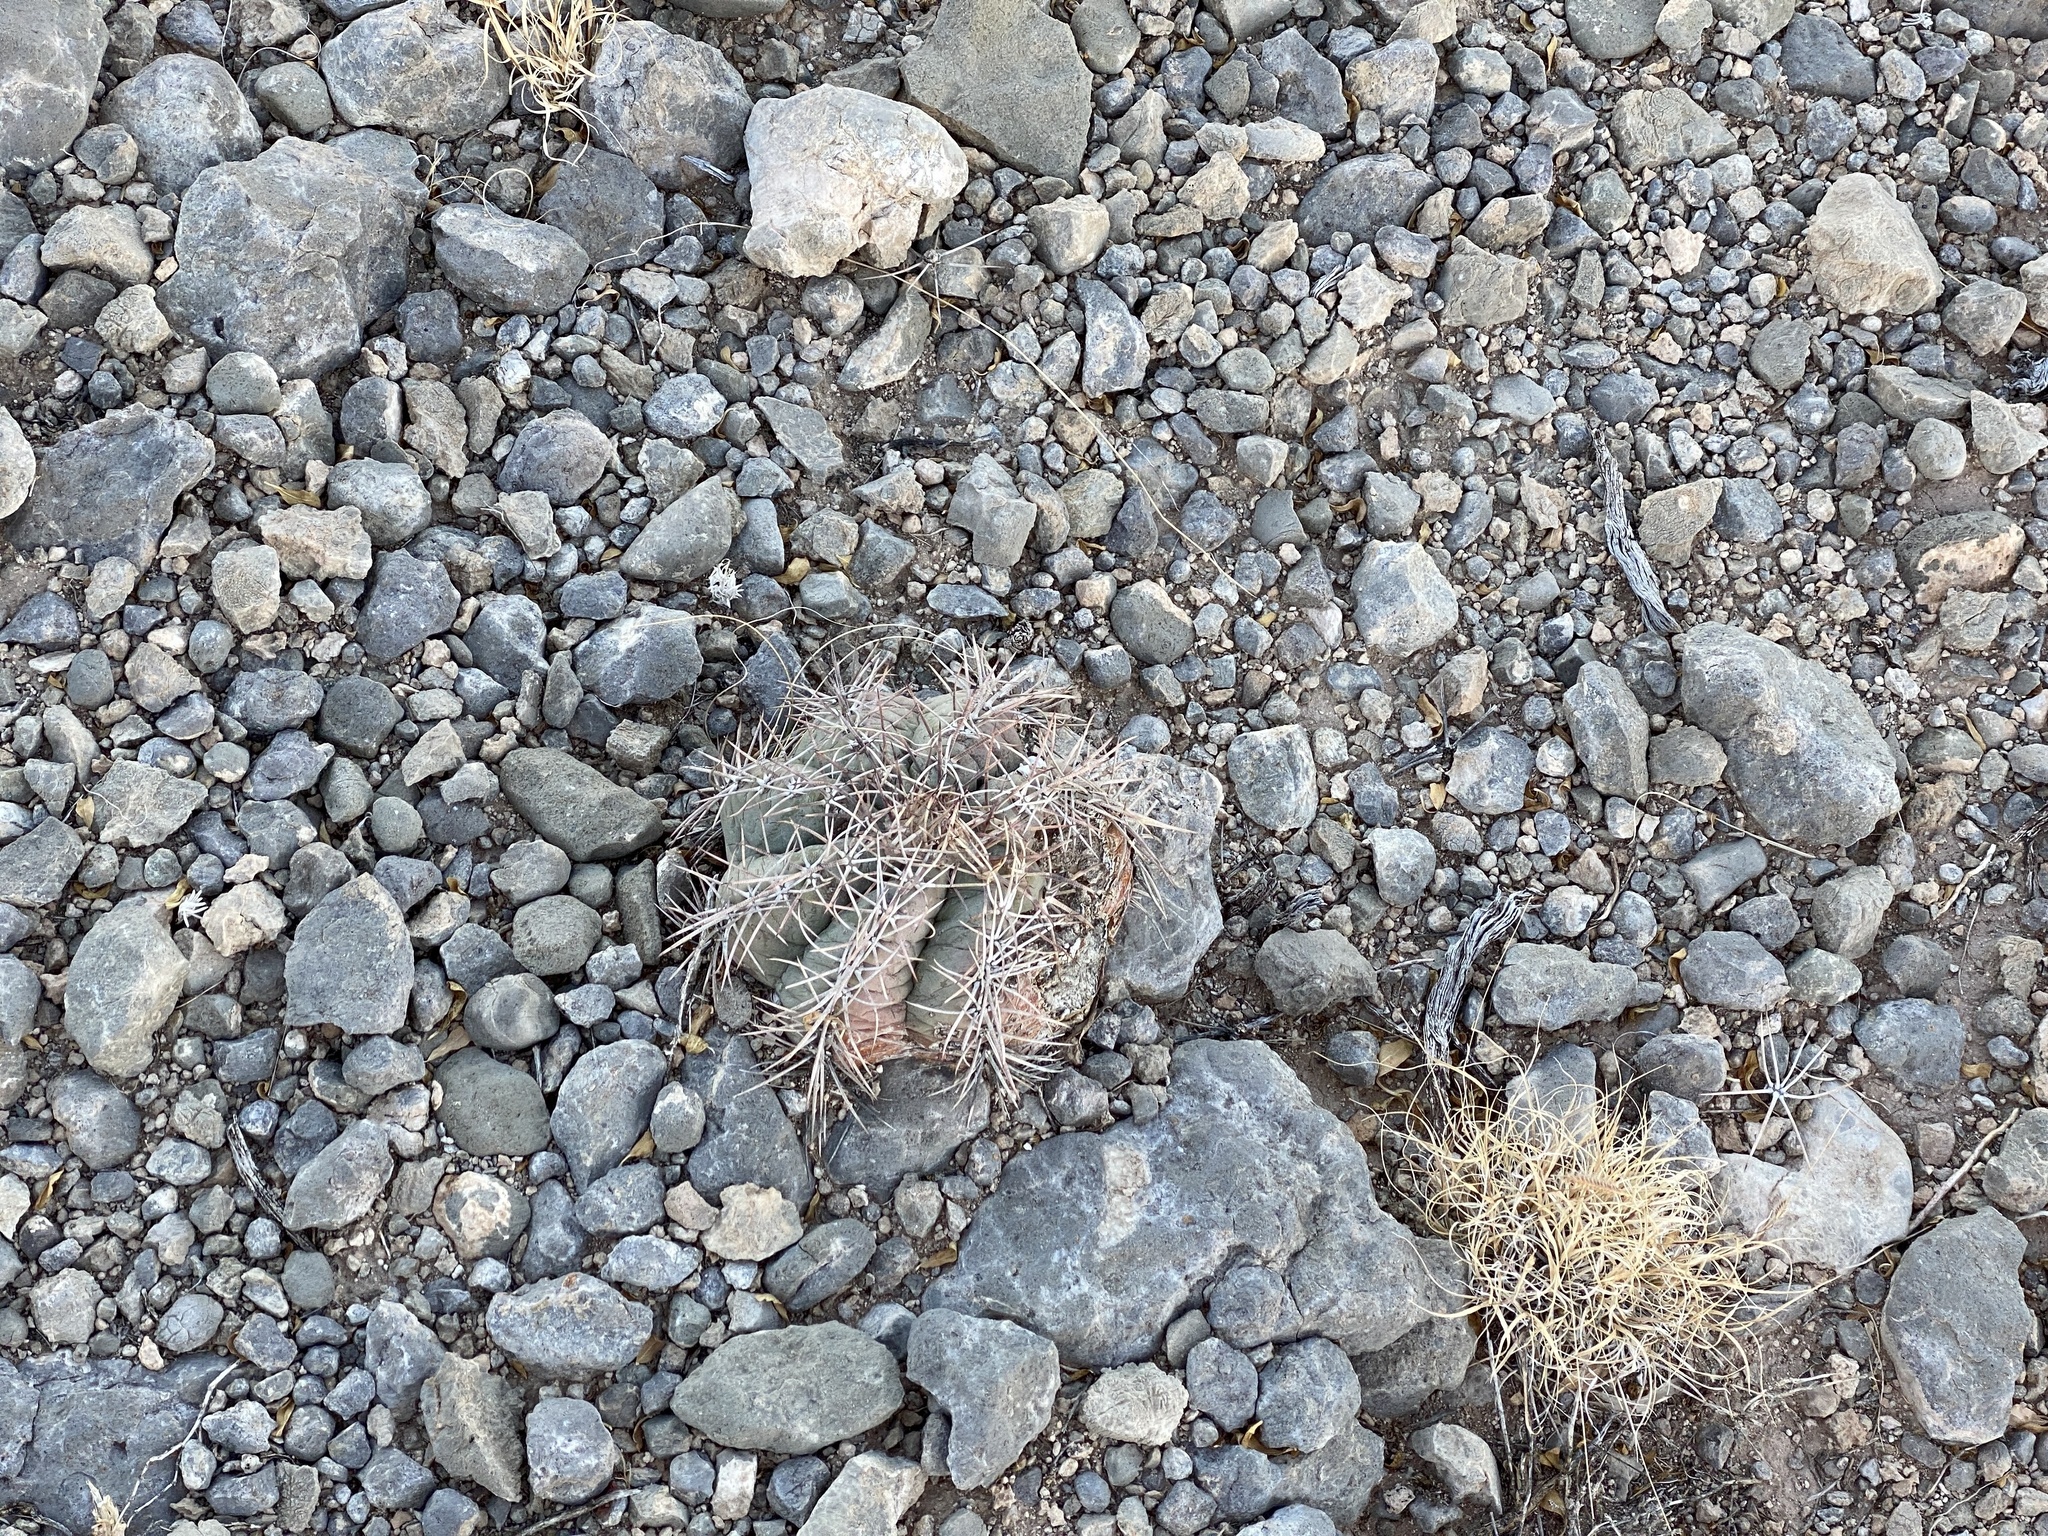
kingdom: Plantae
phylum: Tracheophyta
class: Magnoliopsida
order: Caryophyllales
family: Cactaceae
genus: Echinocactus
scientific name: Echinocactus horizonthalonius
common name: Devilshead
